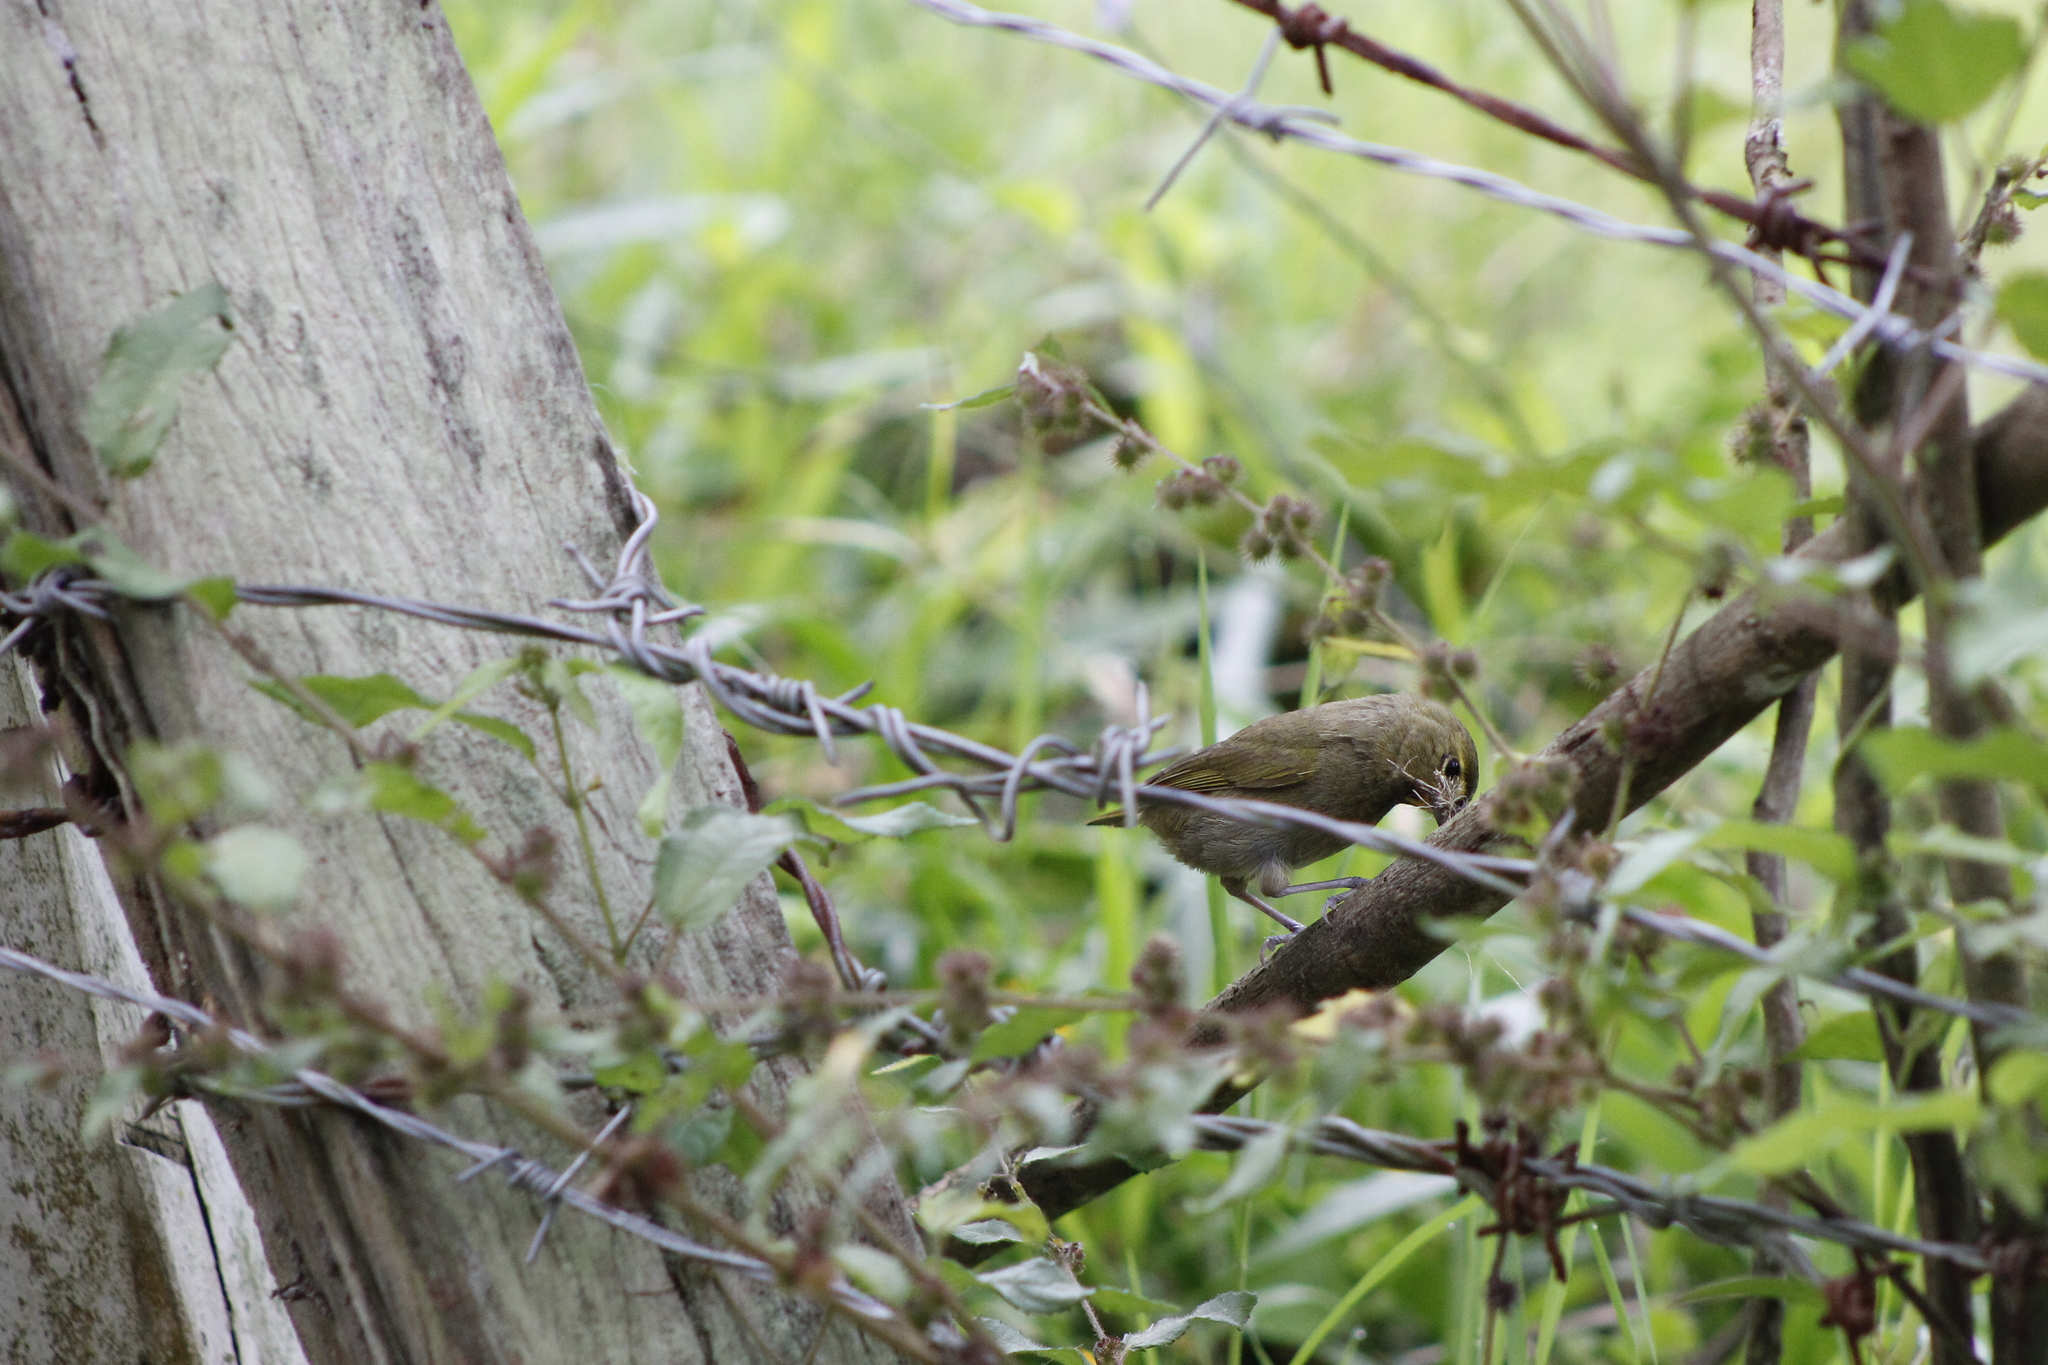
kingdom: Animalia
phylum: Chordata
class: Aves
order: Passeriformes
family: Thraupidae
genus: Tiaris
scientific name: Tiaris olivaceus
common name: Yellow-faced grassquit
